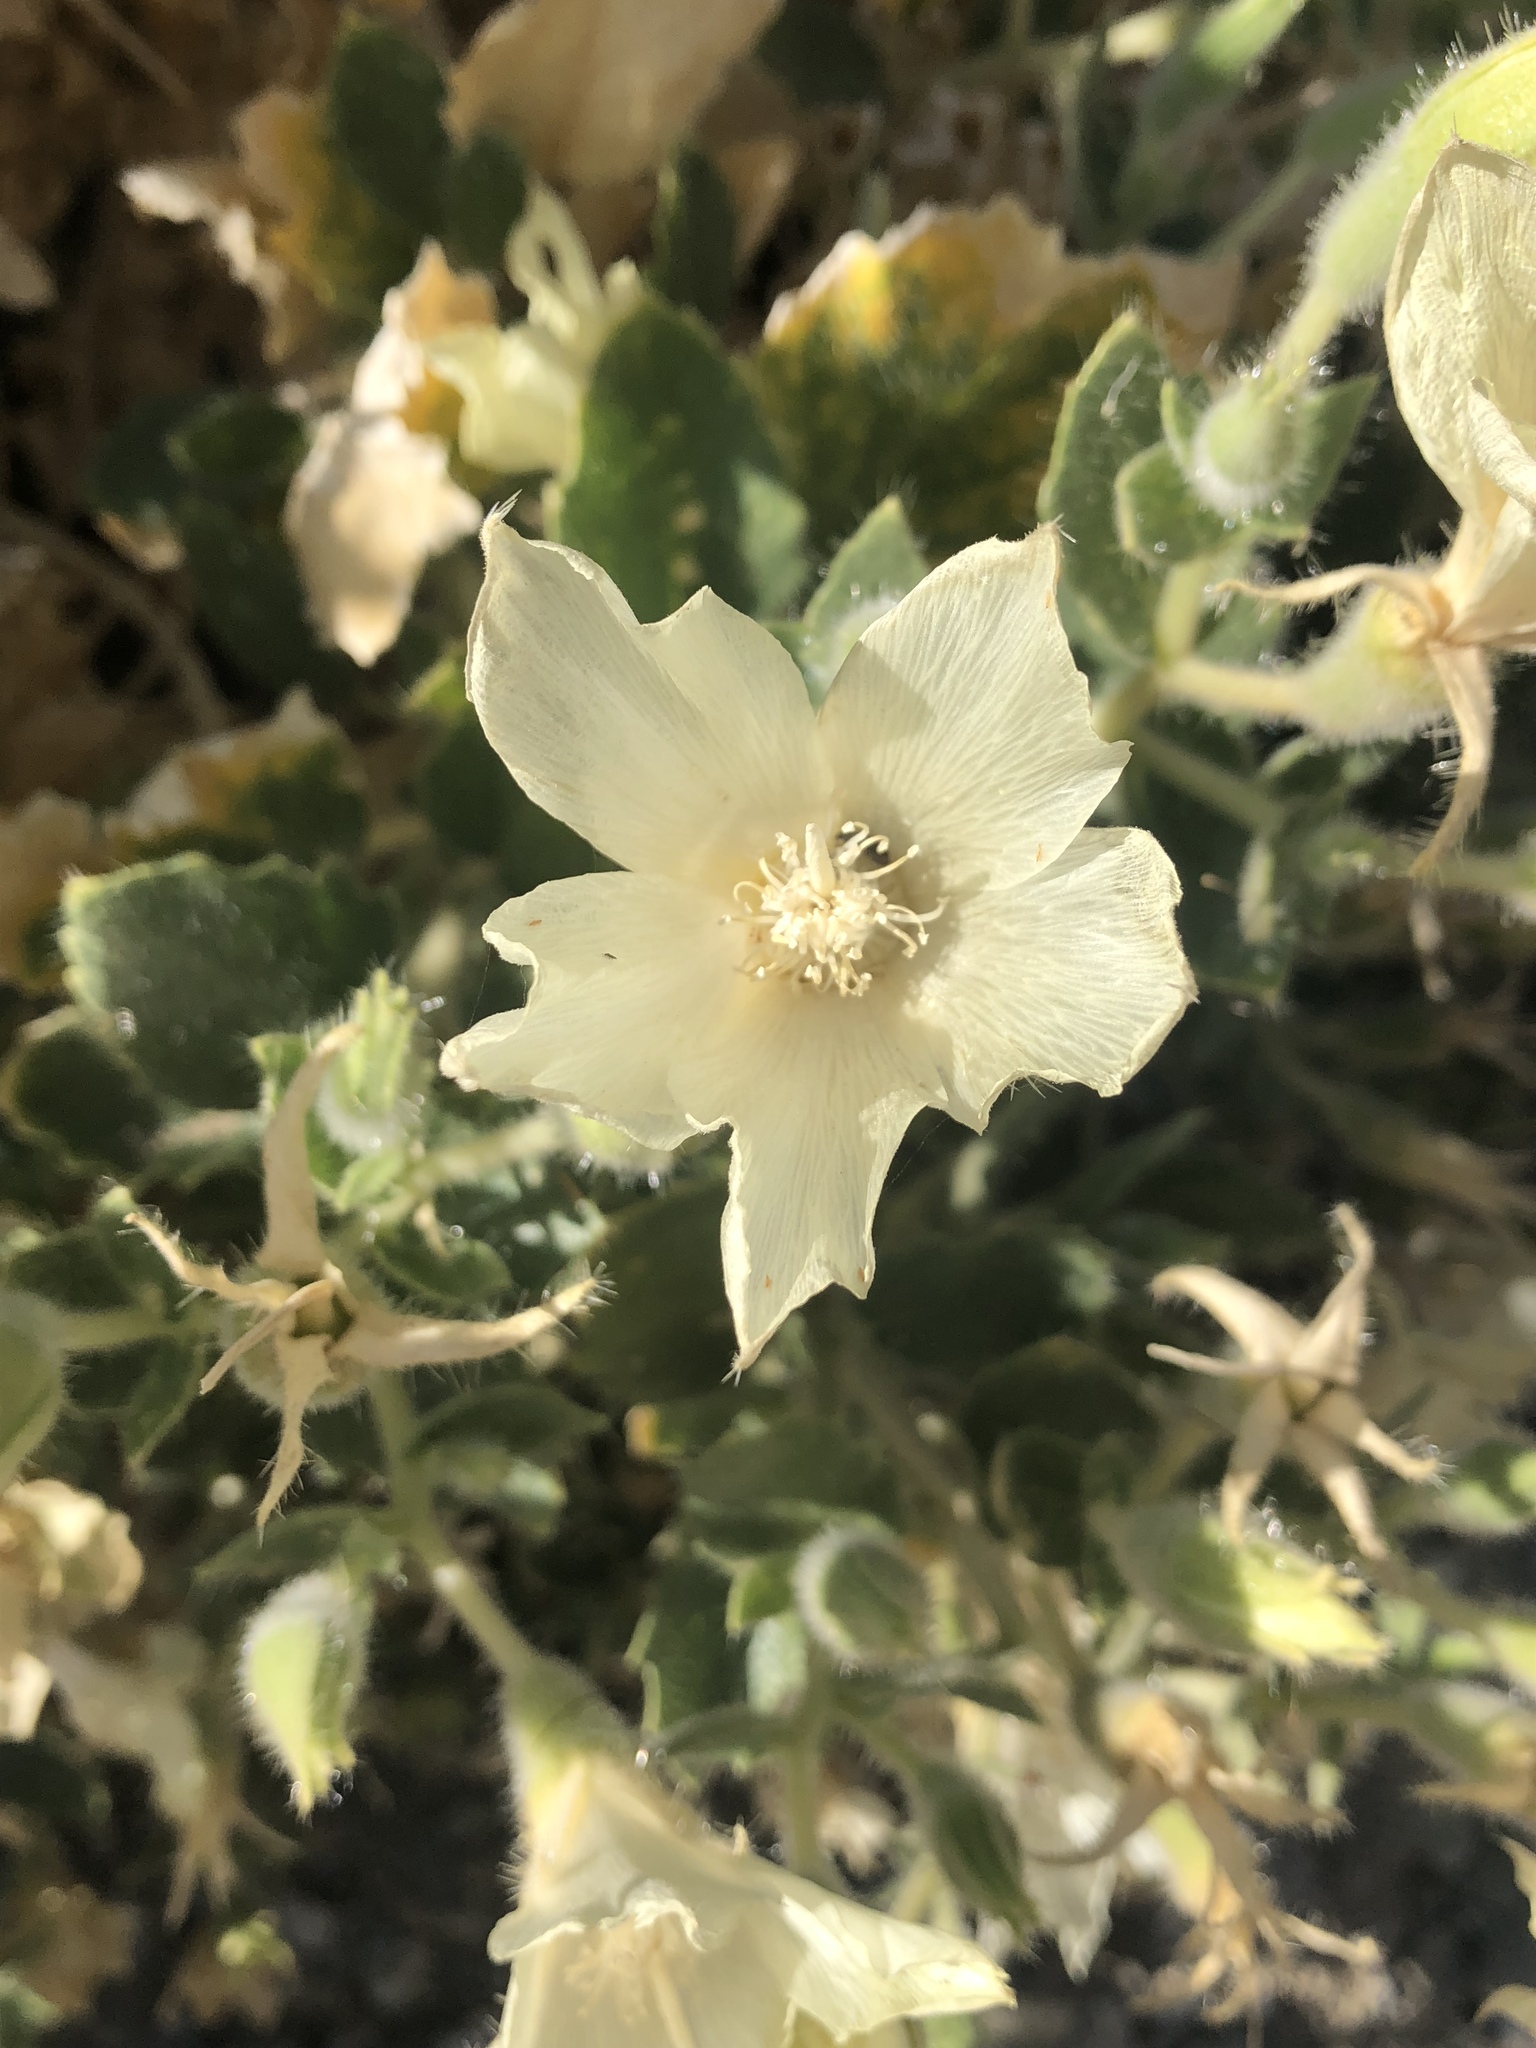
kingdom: Plantae
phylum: Tracheophyta
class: Magnoliopsida
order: Cornales
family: Loasaceae
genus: Eucnide
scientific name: Eucnide urens
